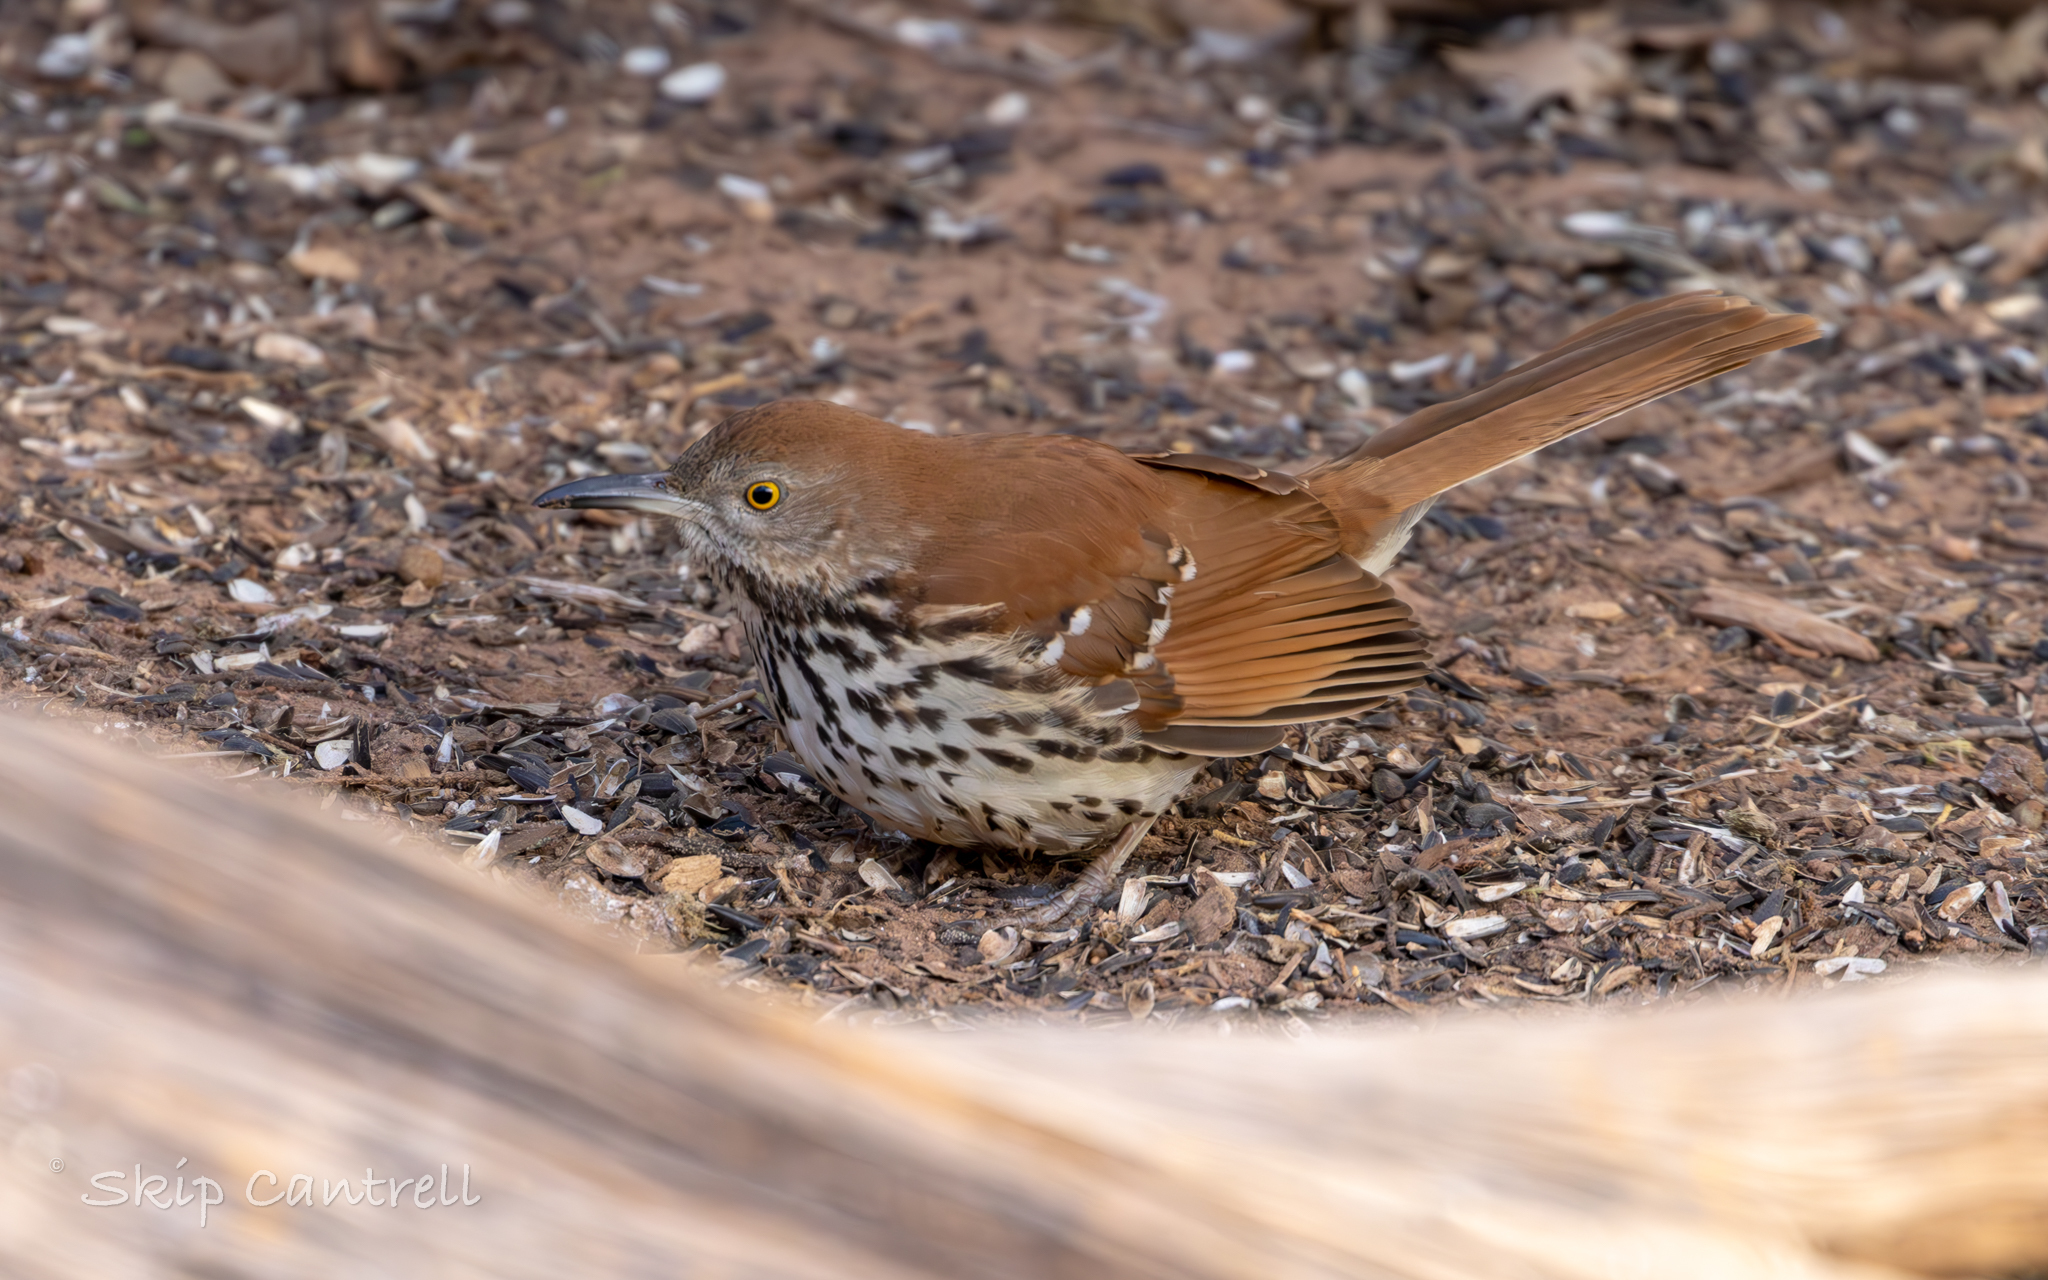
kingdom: Animalia
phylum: Chordata
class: Aves
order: Passeriformes
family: Mimidae
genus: Toxostoma
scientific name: Toxostoma rufum
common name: Brown thrasher
